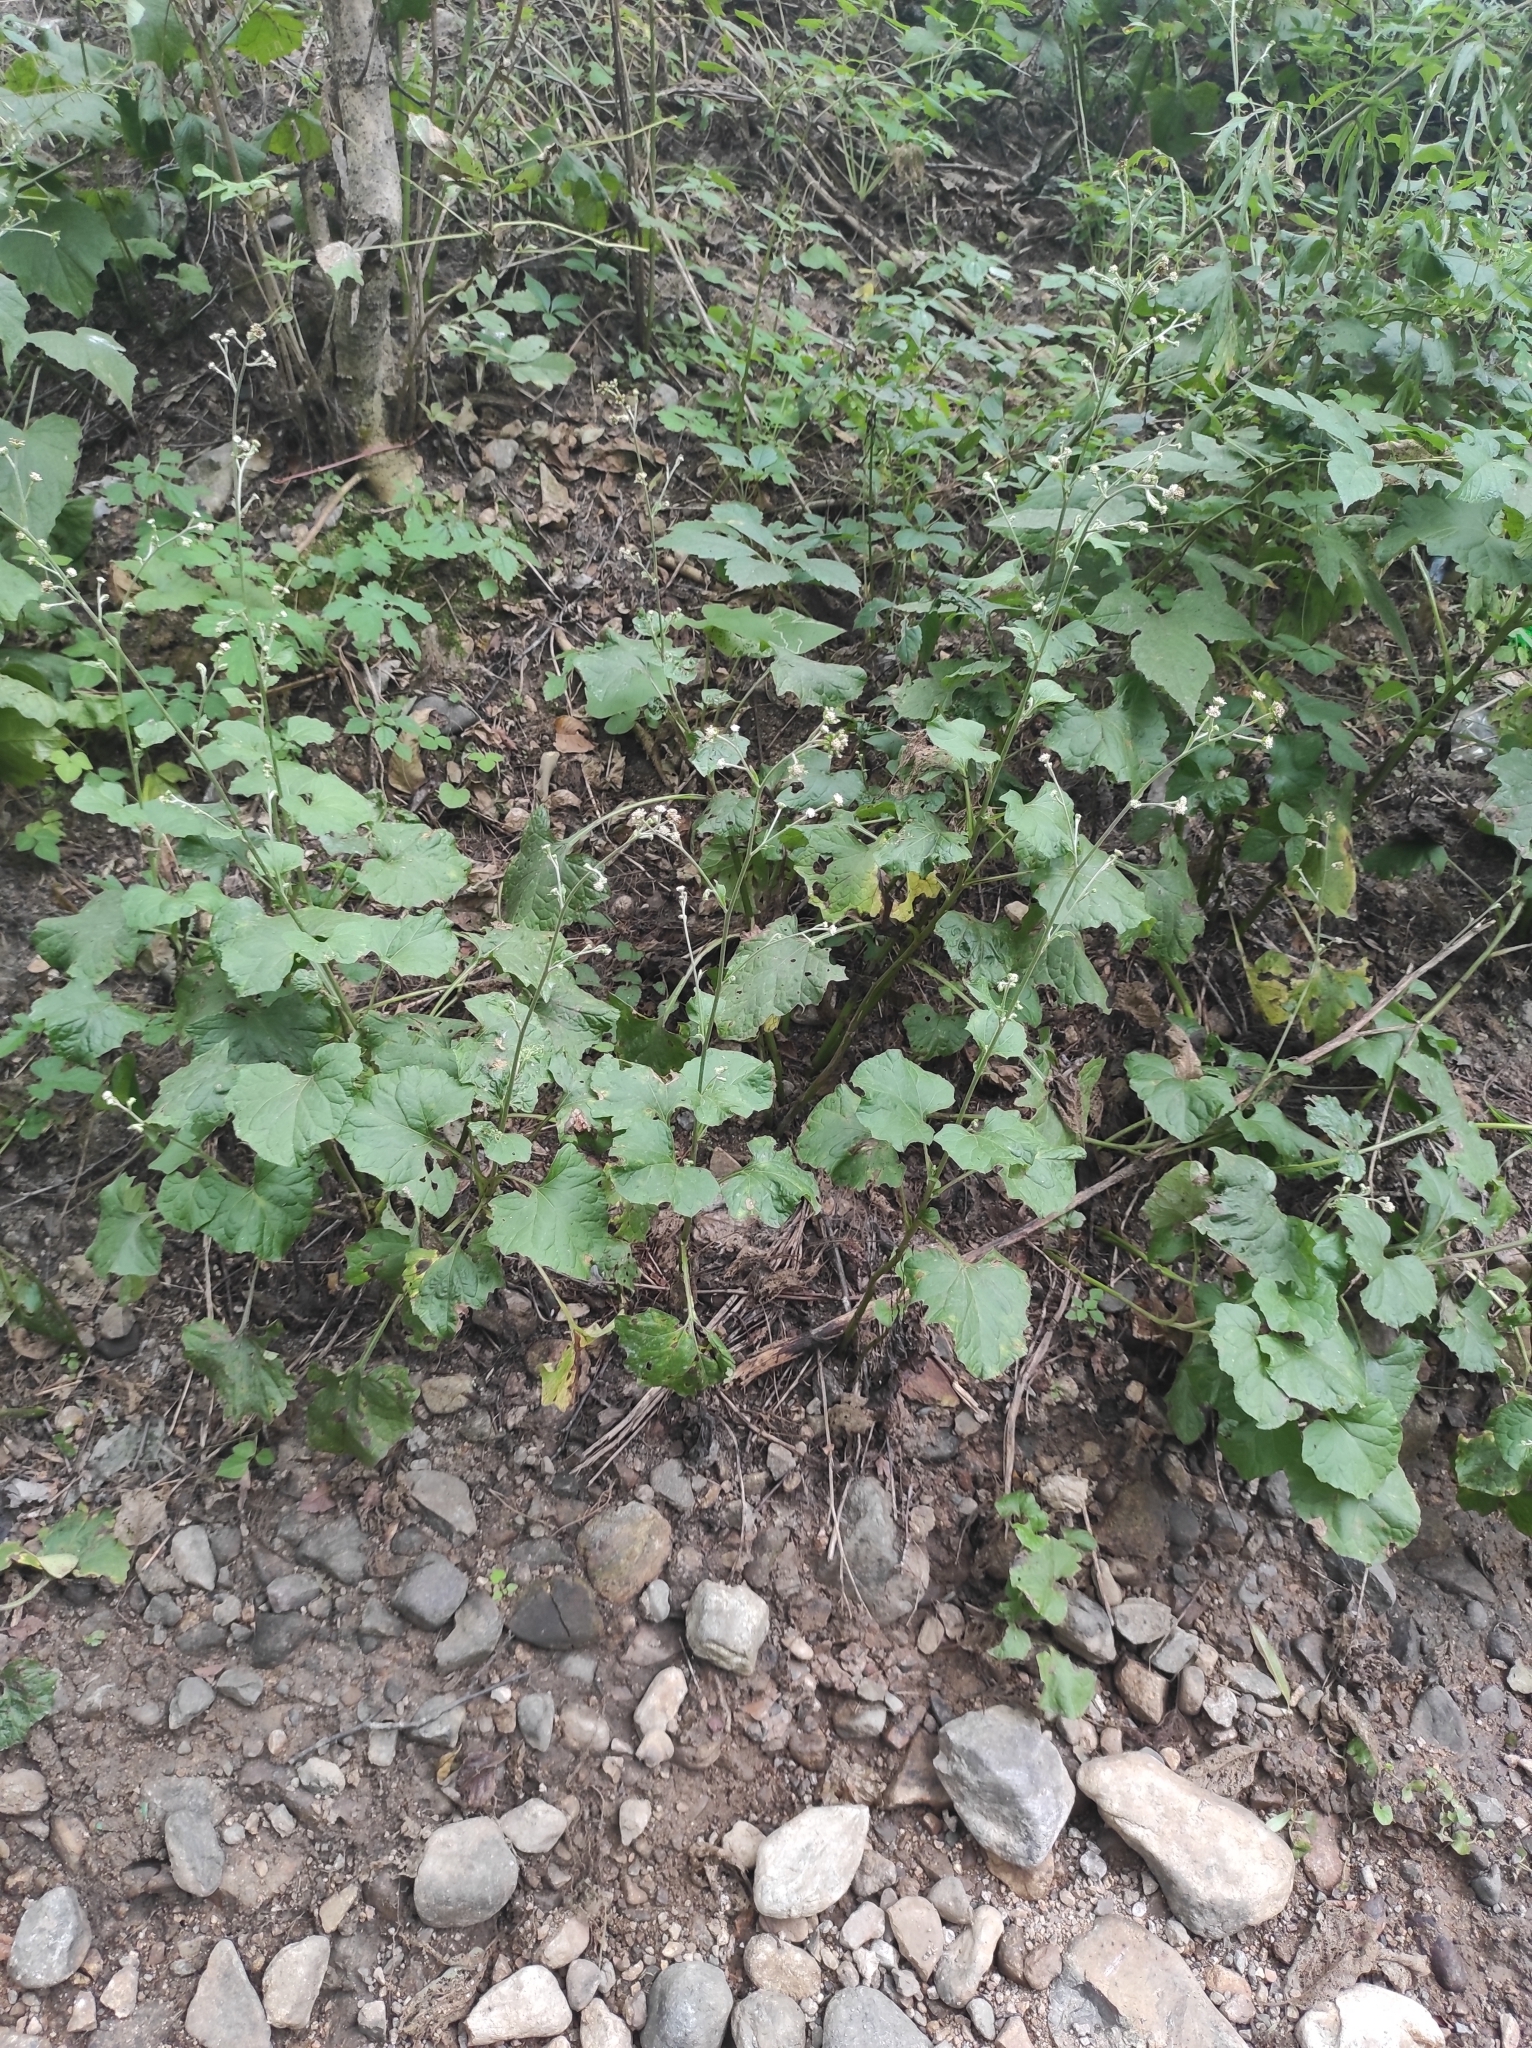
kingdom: Plantae
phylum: Tracheophyta
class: Magnoliopsida
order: Asterales
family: Asteraceae
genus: Adenocaulon
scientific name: Adenocaulon himalaicum
